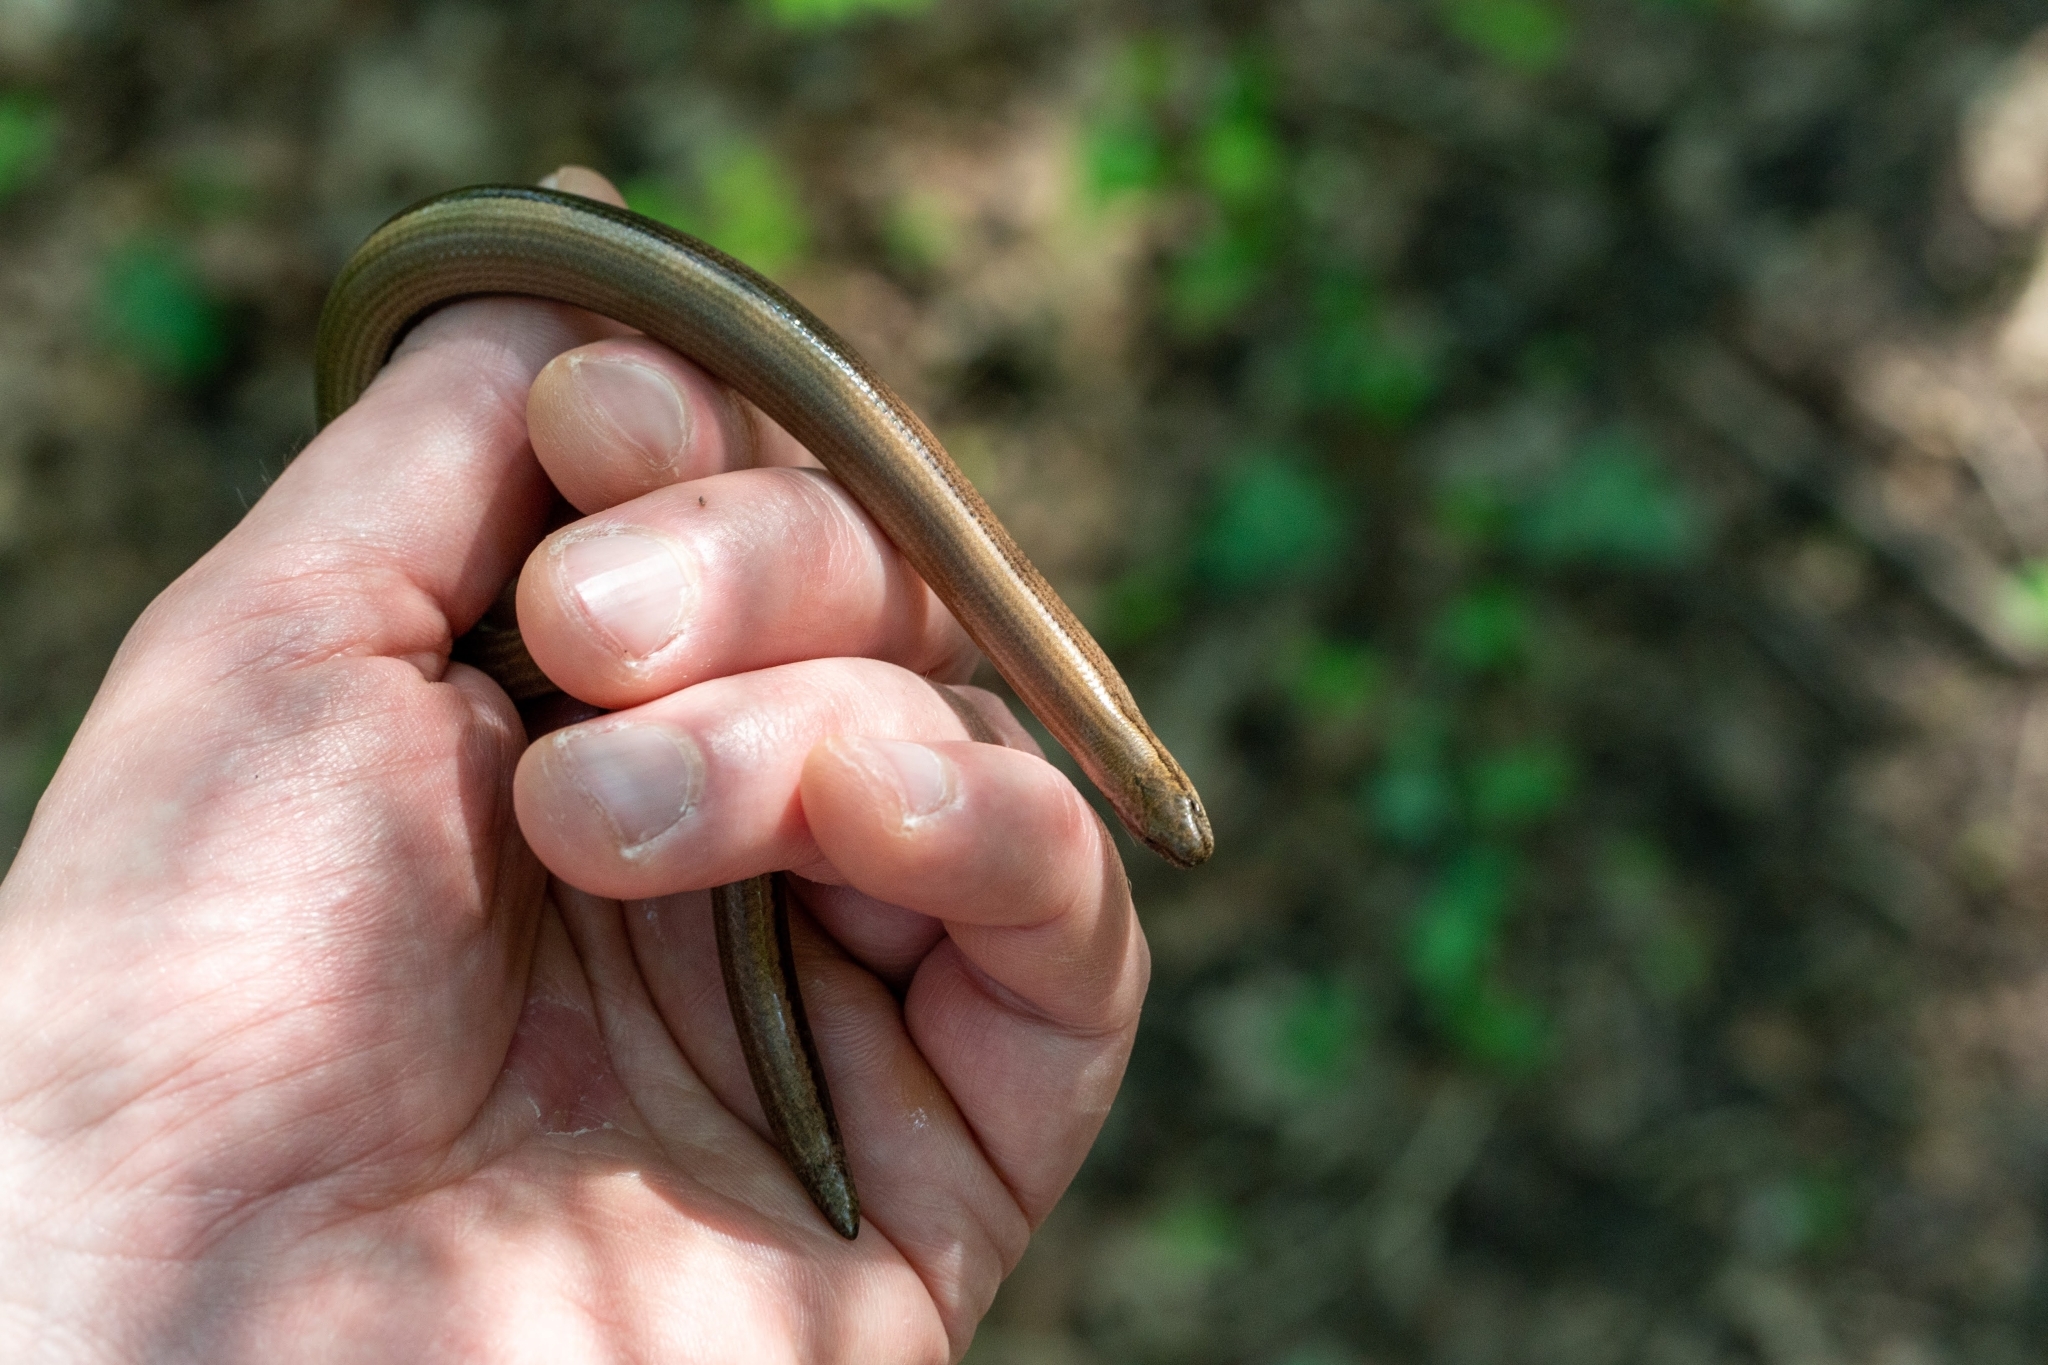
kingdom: Animalia
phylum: Chordata
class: Squamata
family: Anguidae
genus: Anguis
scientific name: Anguis fragilis
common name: Slow worm
